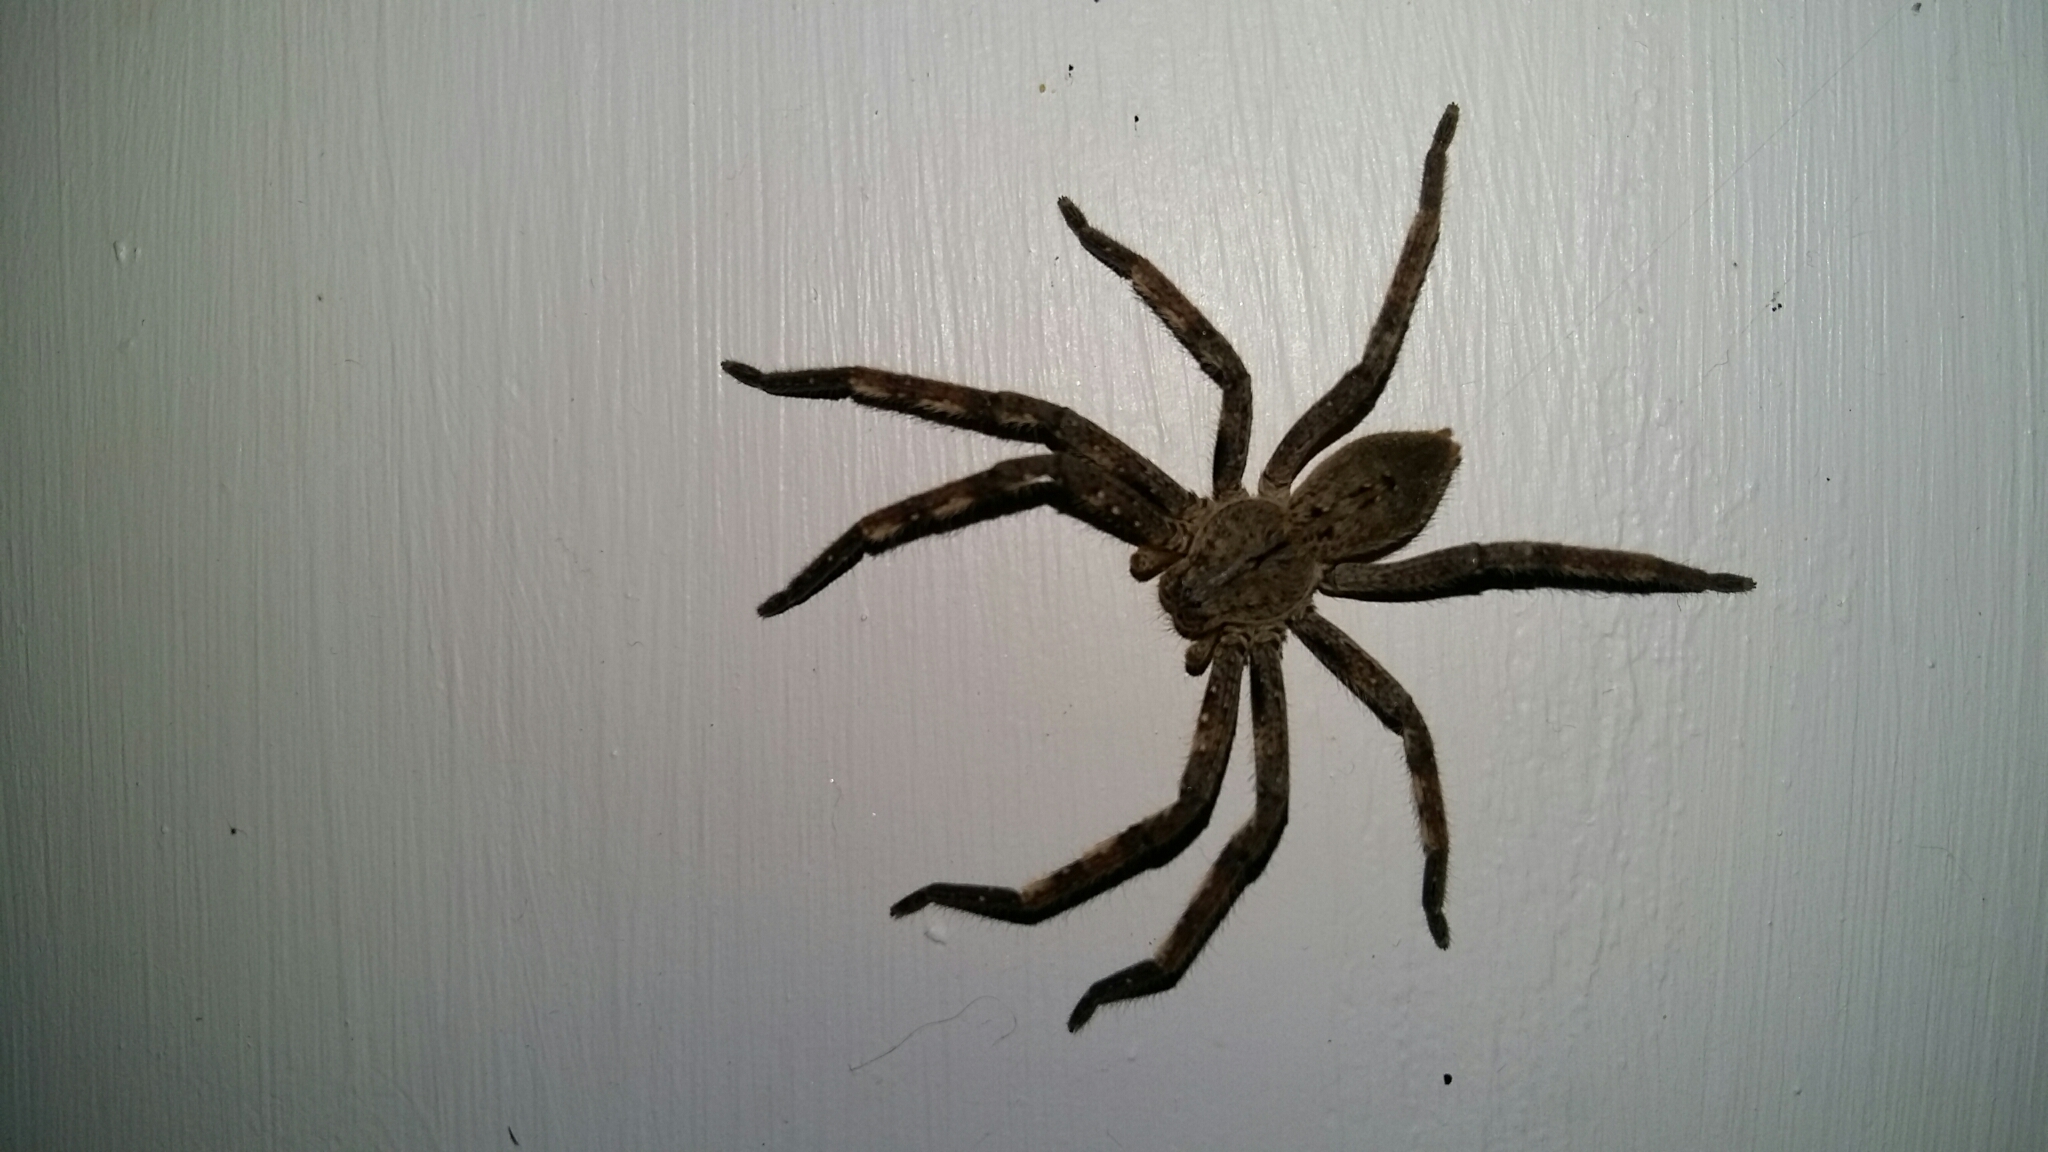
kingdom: Animalia
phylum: Arthropoda
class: Arachnida
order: Araneae
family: Sparassidae
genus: Palystes
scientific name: Palystes superciliosus
